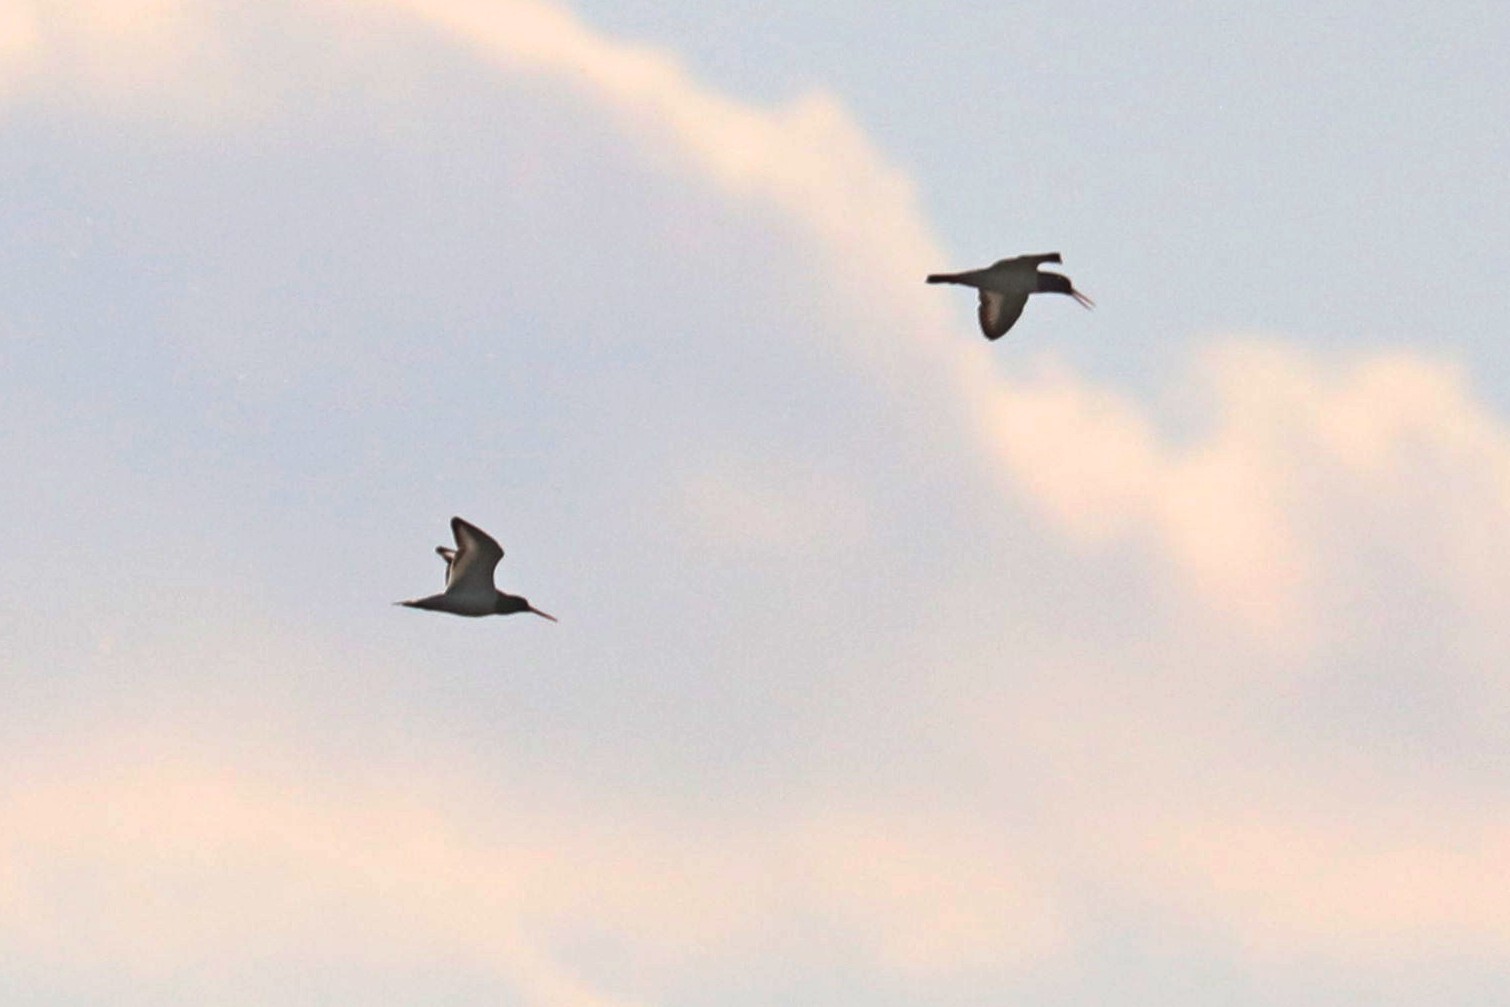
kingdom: Animalia
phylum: Chordata
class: Aves
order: Charadriiformes
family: Haematopodidae
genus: Haematopus
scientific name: Haematopus ostralegus
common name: Eurasian oystercatcher
